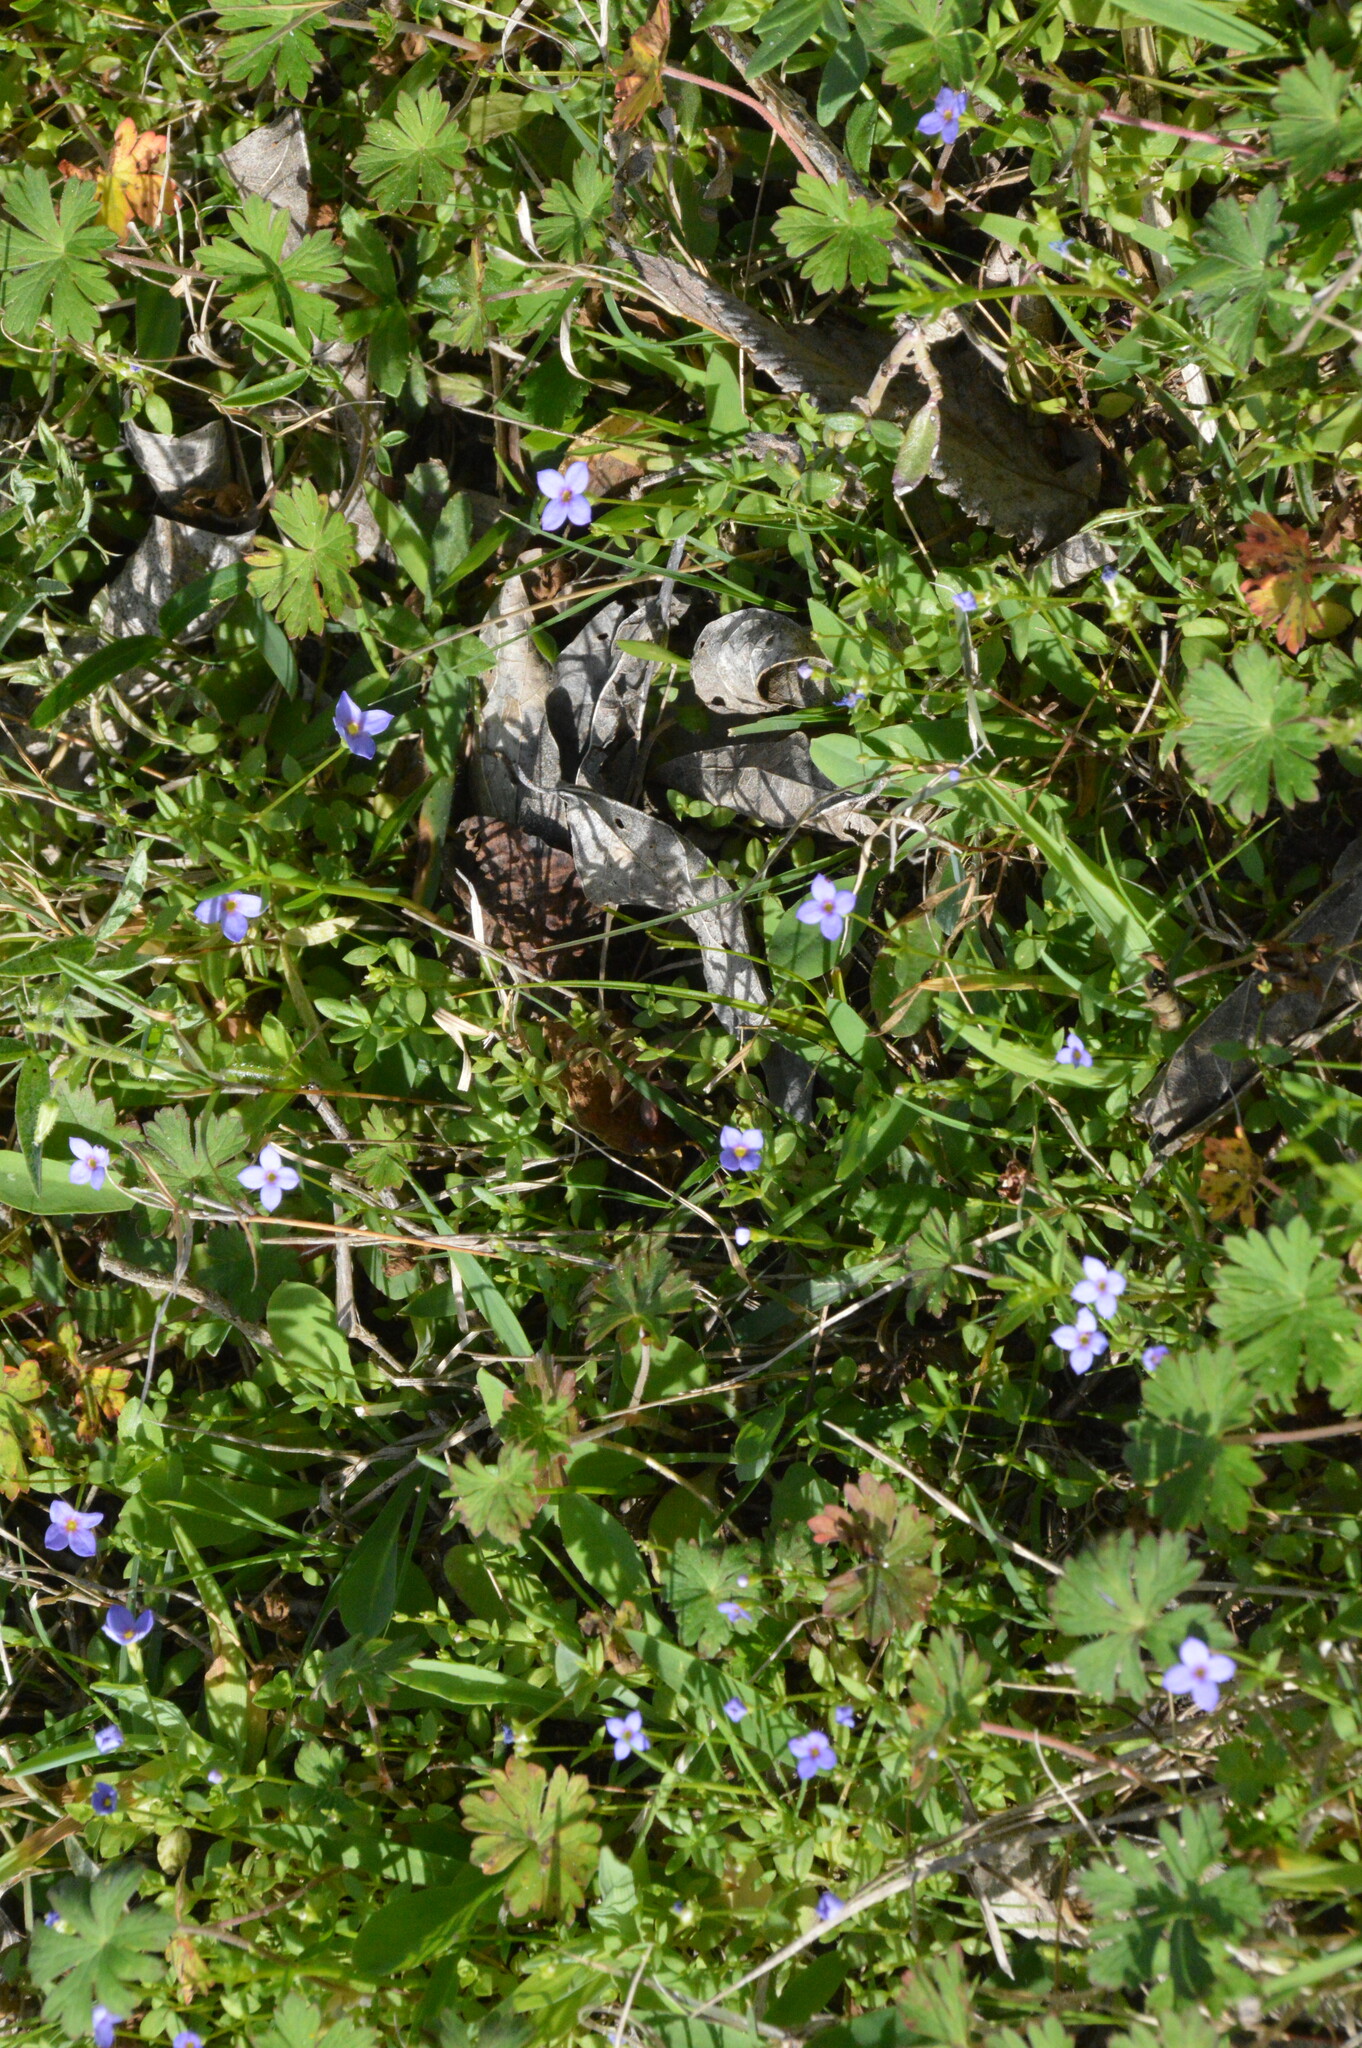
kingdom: Plantae
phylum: Tracheophyta
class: Magnoliopsida
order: Gentianales
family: Rubiaceae
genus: Houstonia
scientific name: Houstonia pusilla
